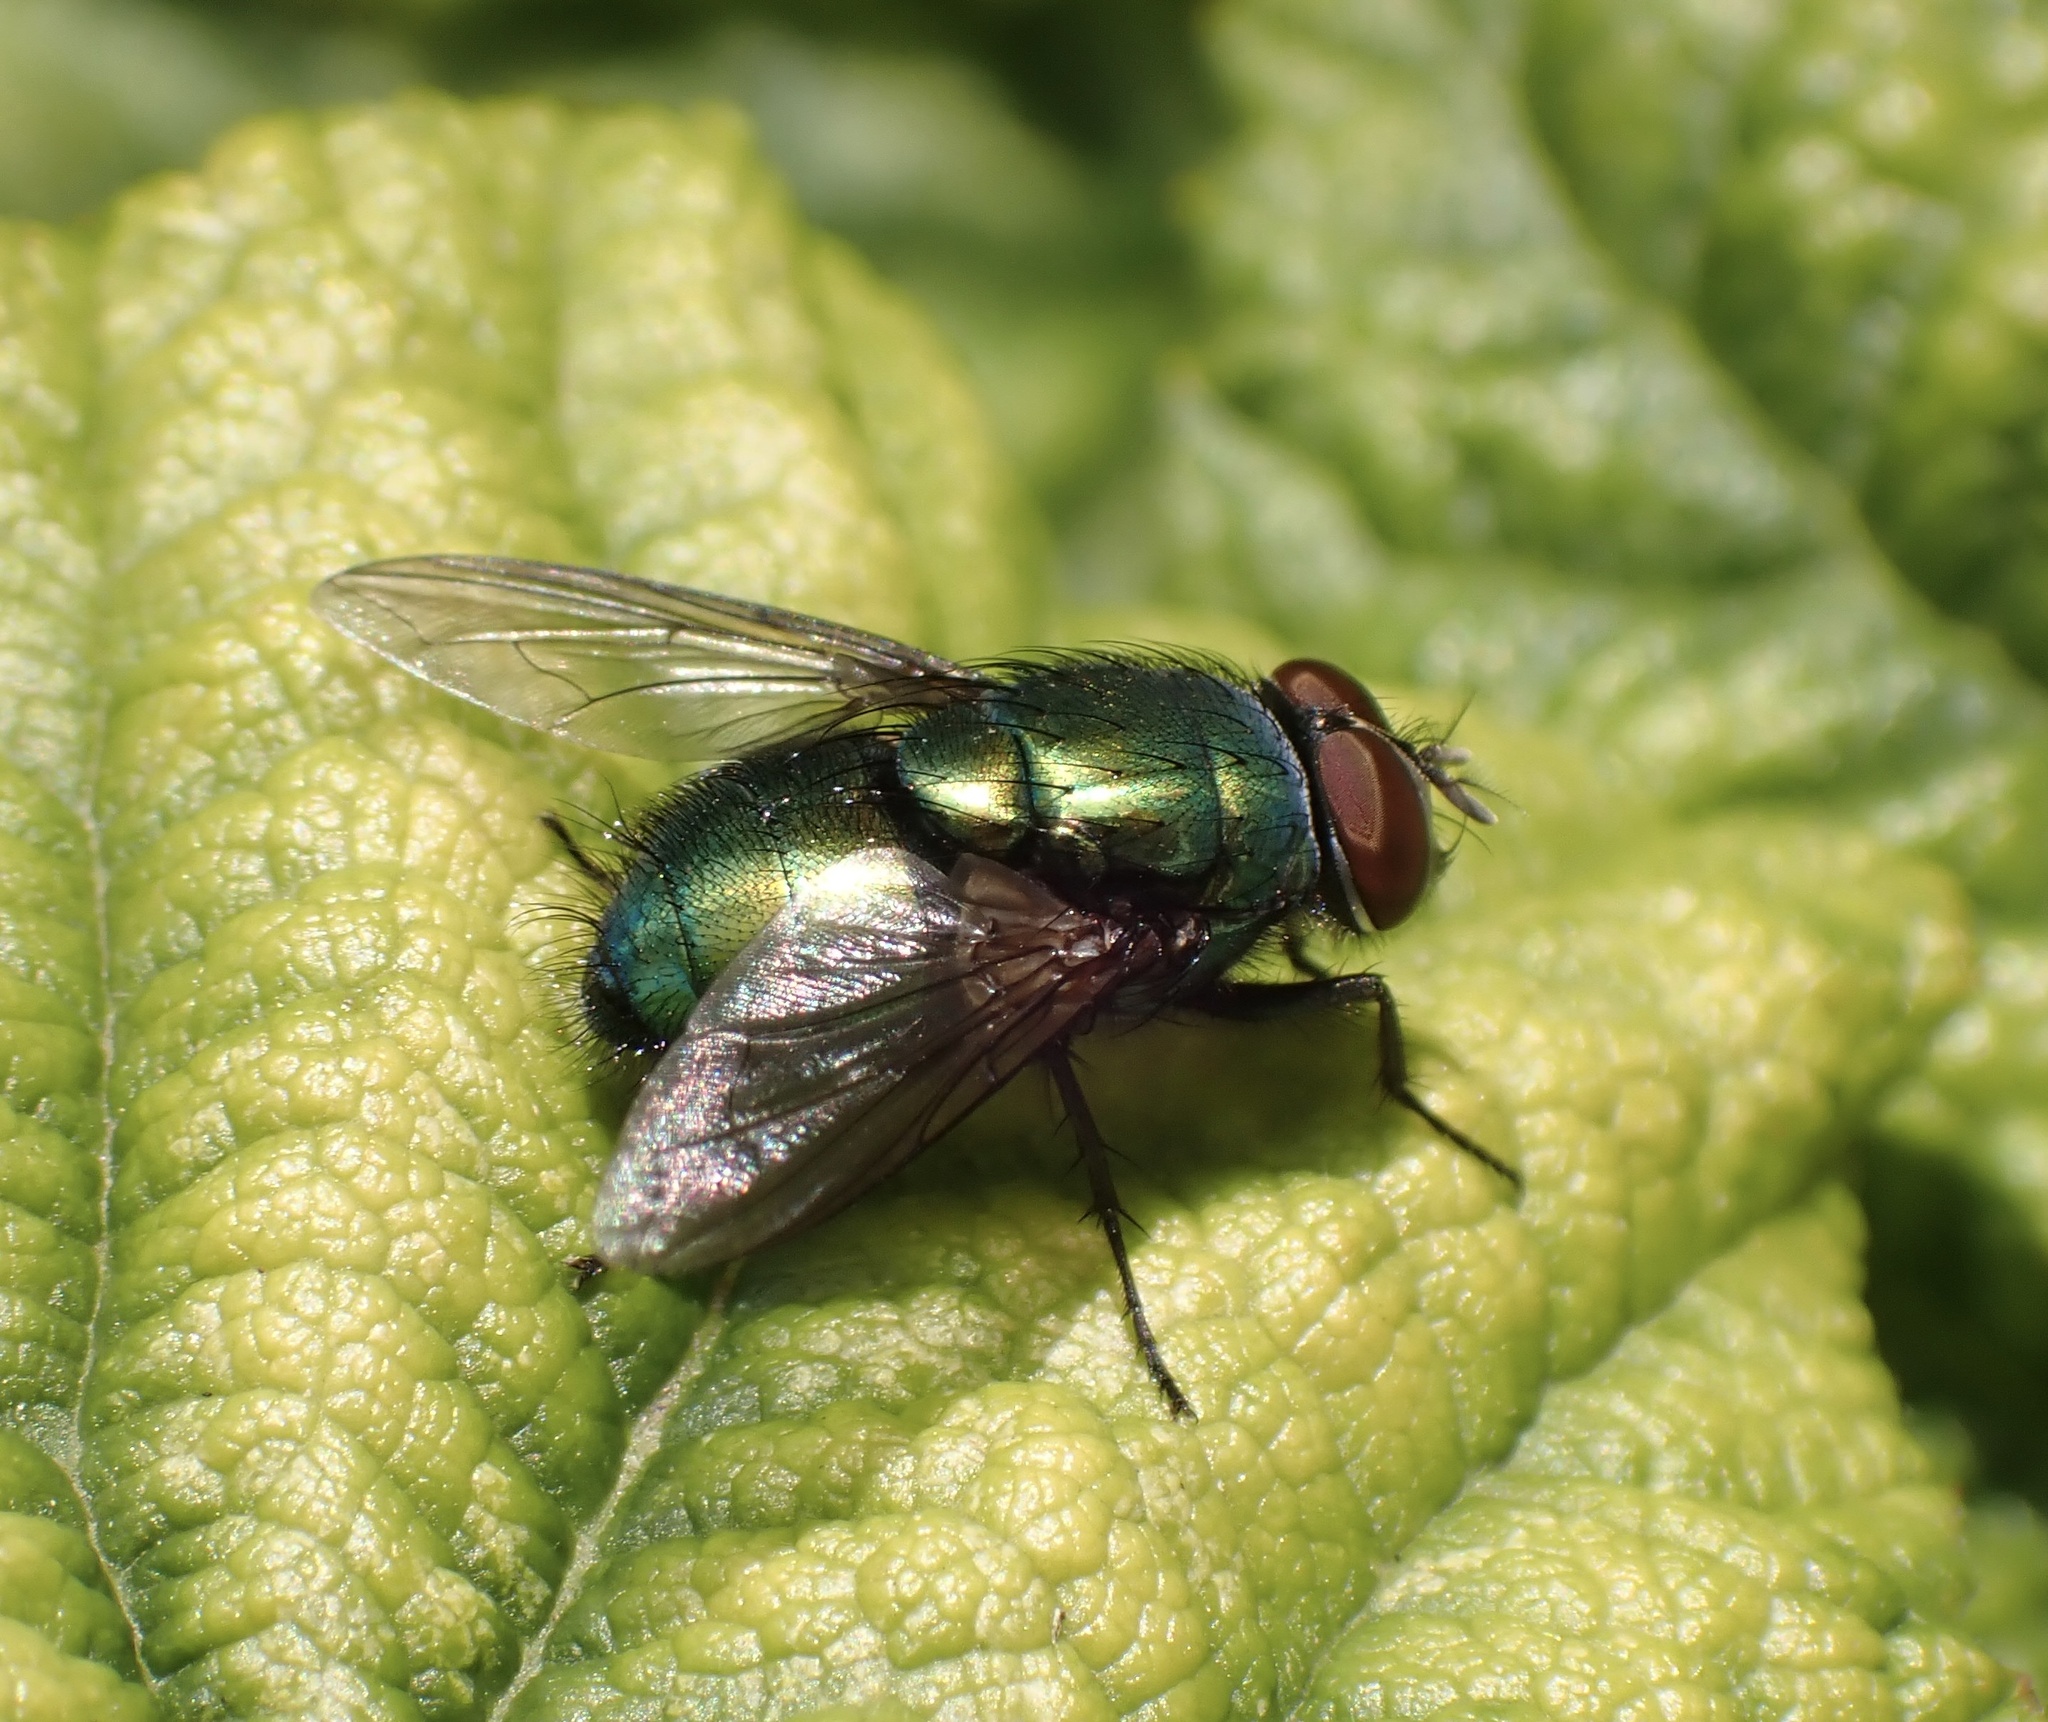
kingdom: Animalia
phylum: Arthropoda
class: Insecta
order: Diptera
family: Calliphoridae
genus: Lucilia
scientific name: Lucilia
